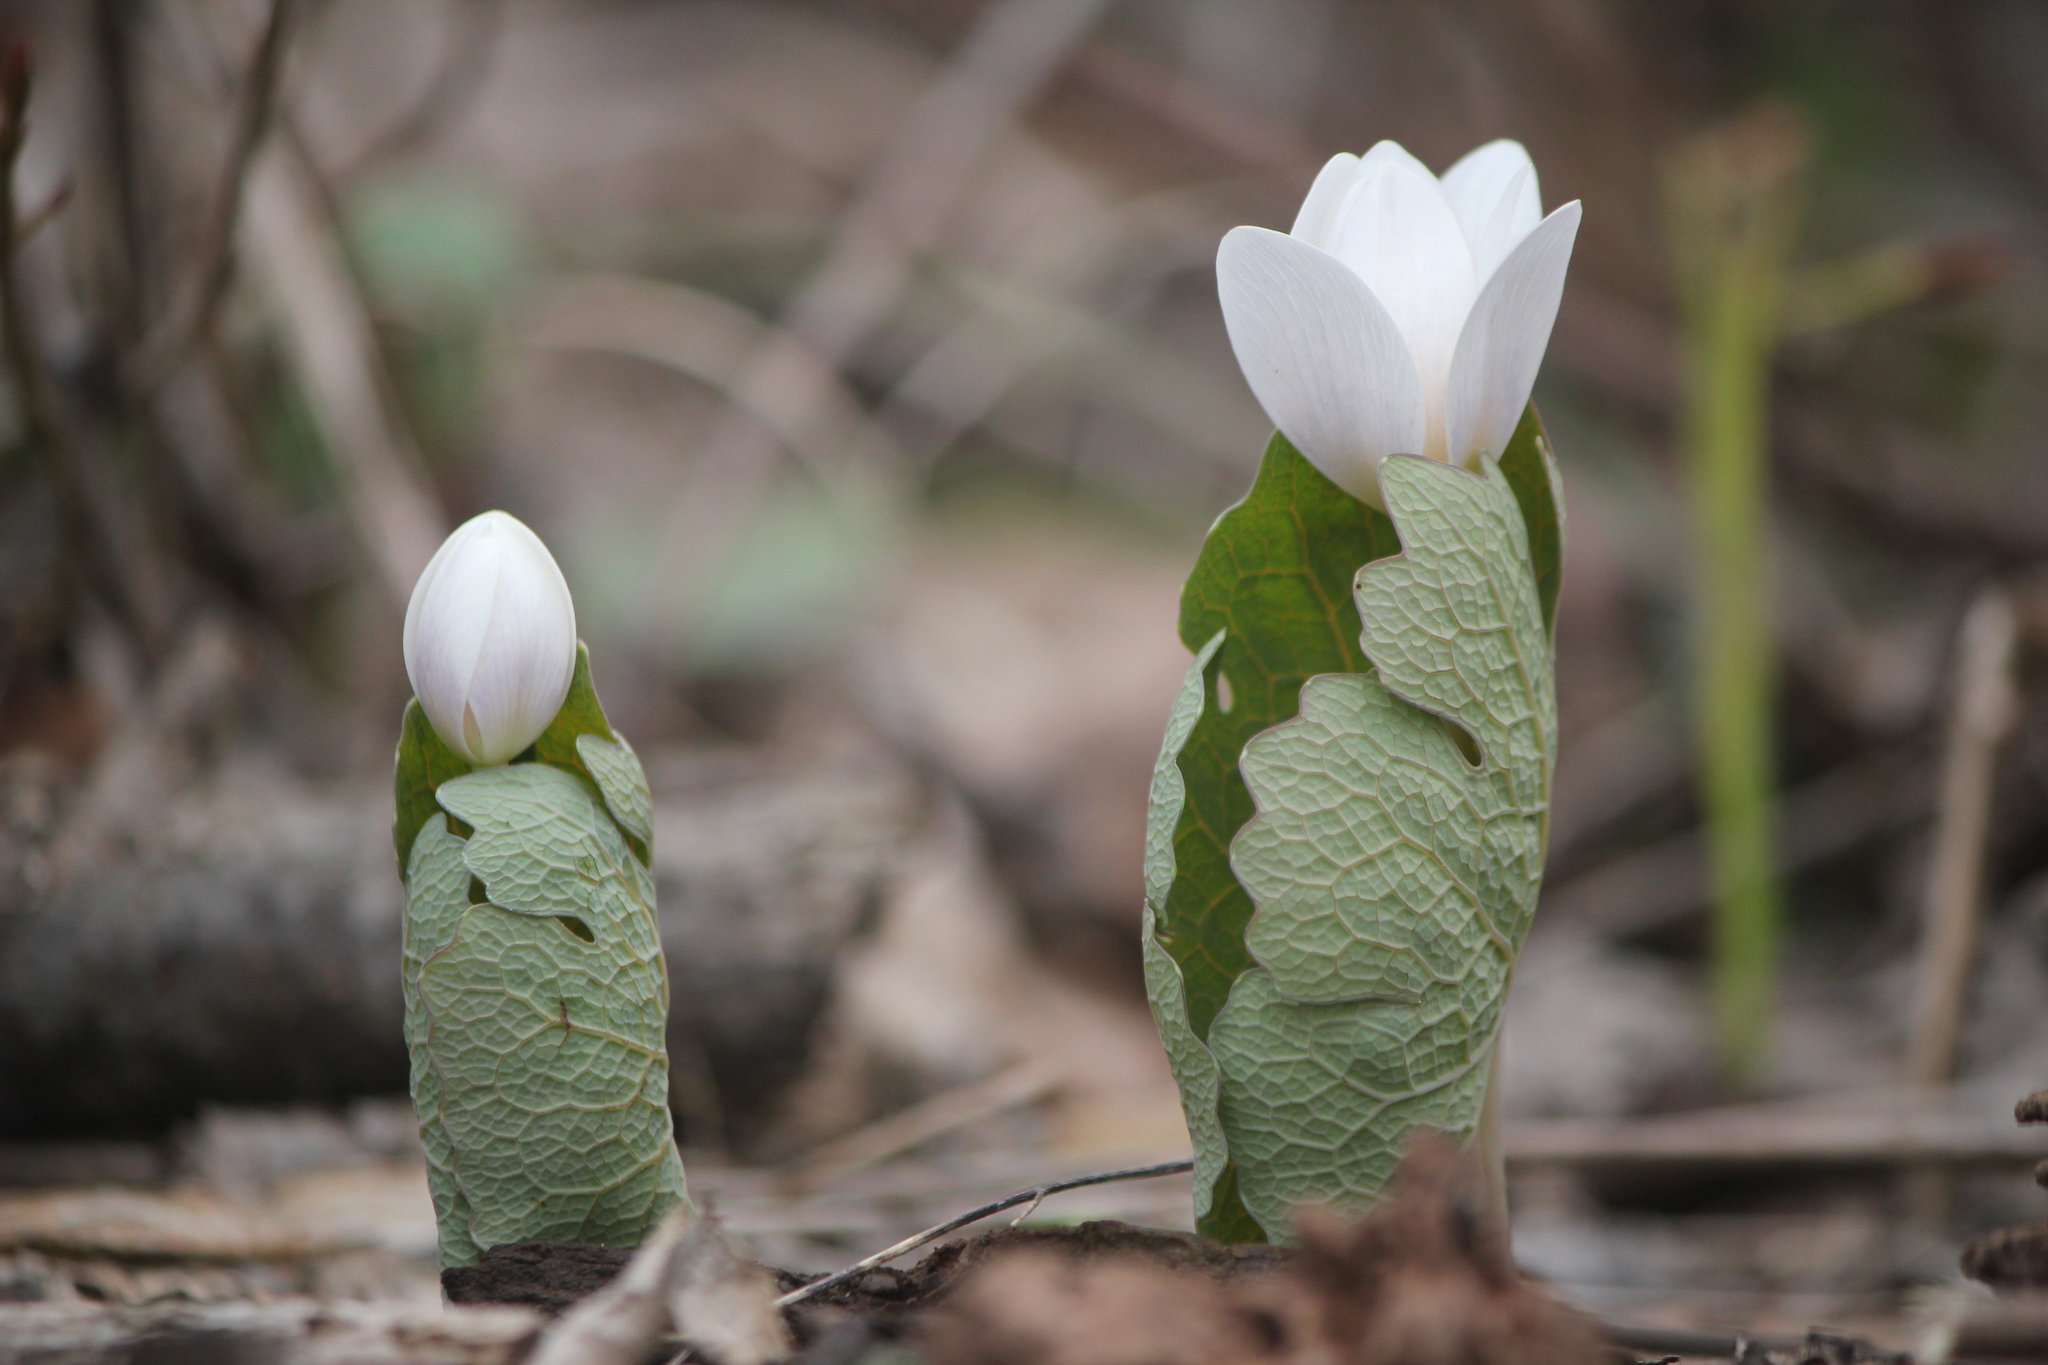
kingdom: Plantae
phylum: Tracheophyta
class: Magnoliopsida
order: Ranunculales
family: Papaveraceae
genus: Sanguinaria
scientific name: Sanguinaria canadensis
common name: Bloodroot
